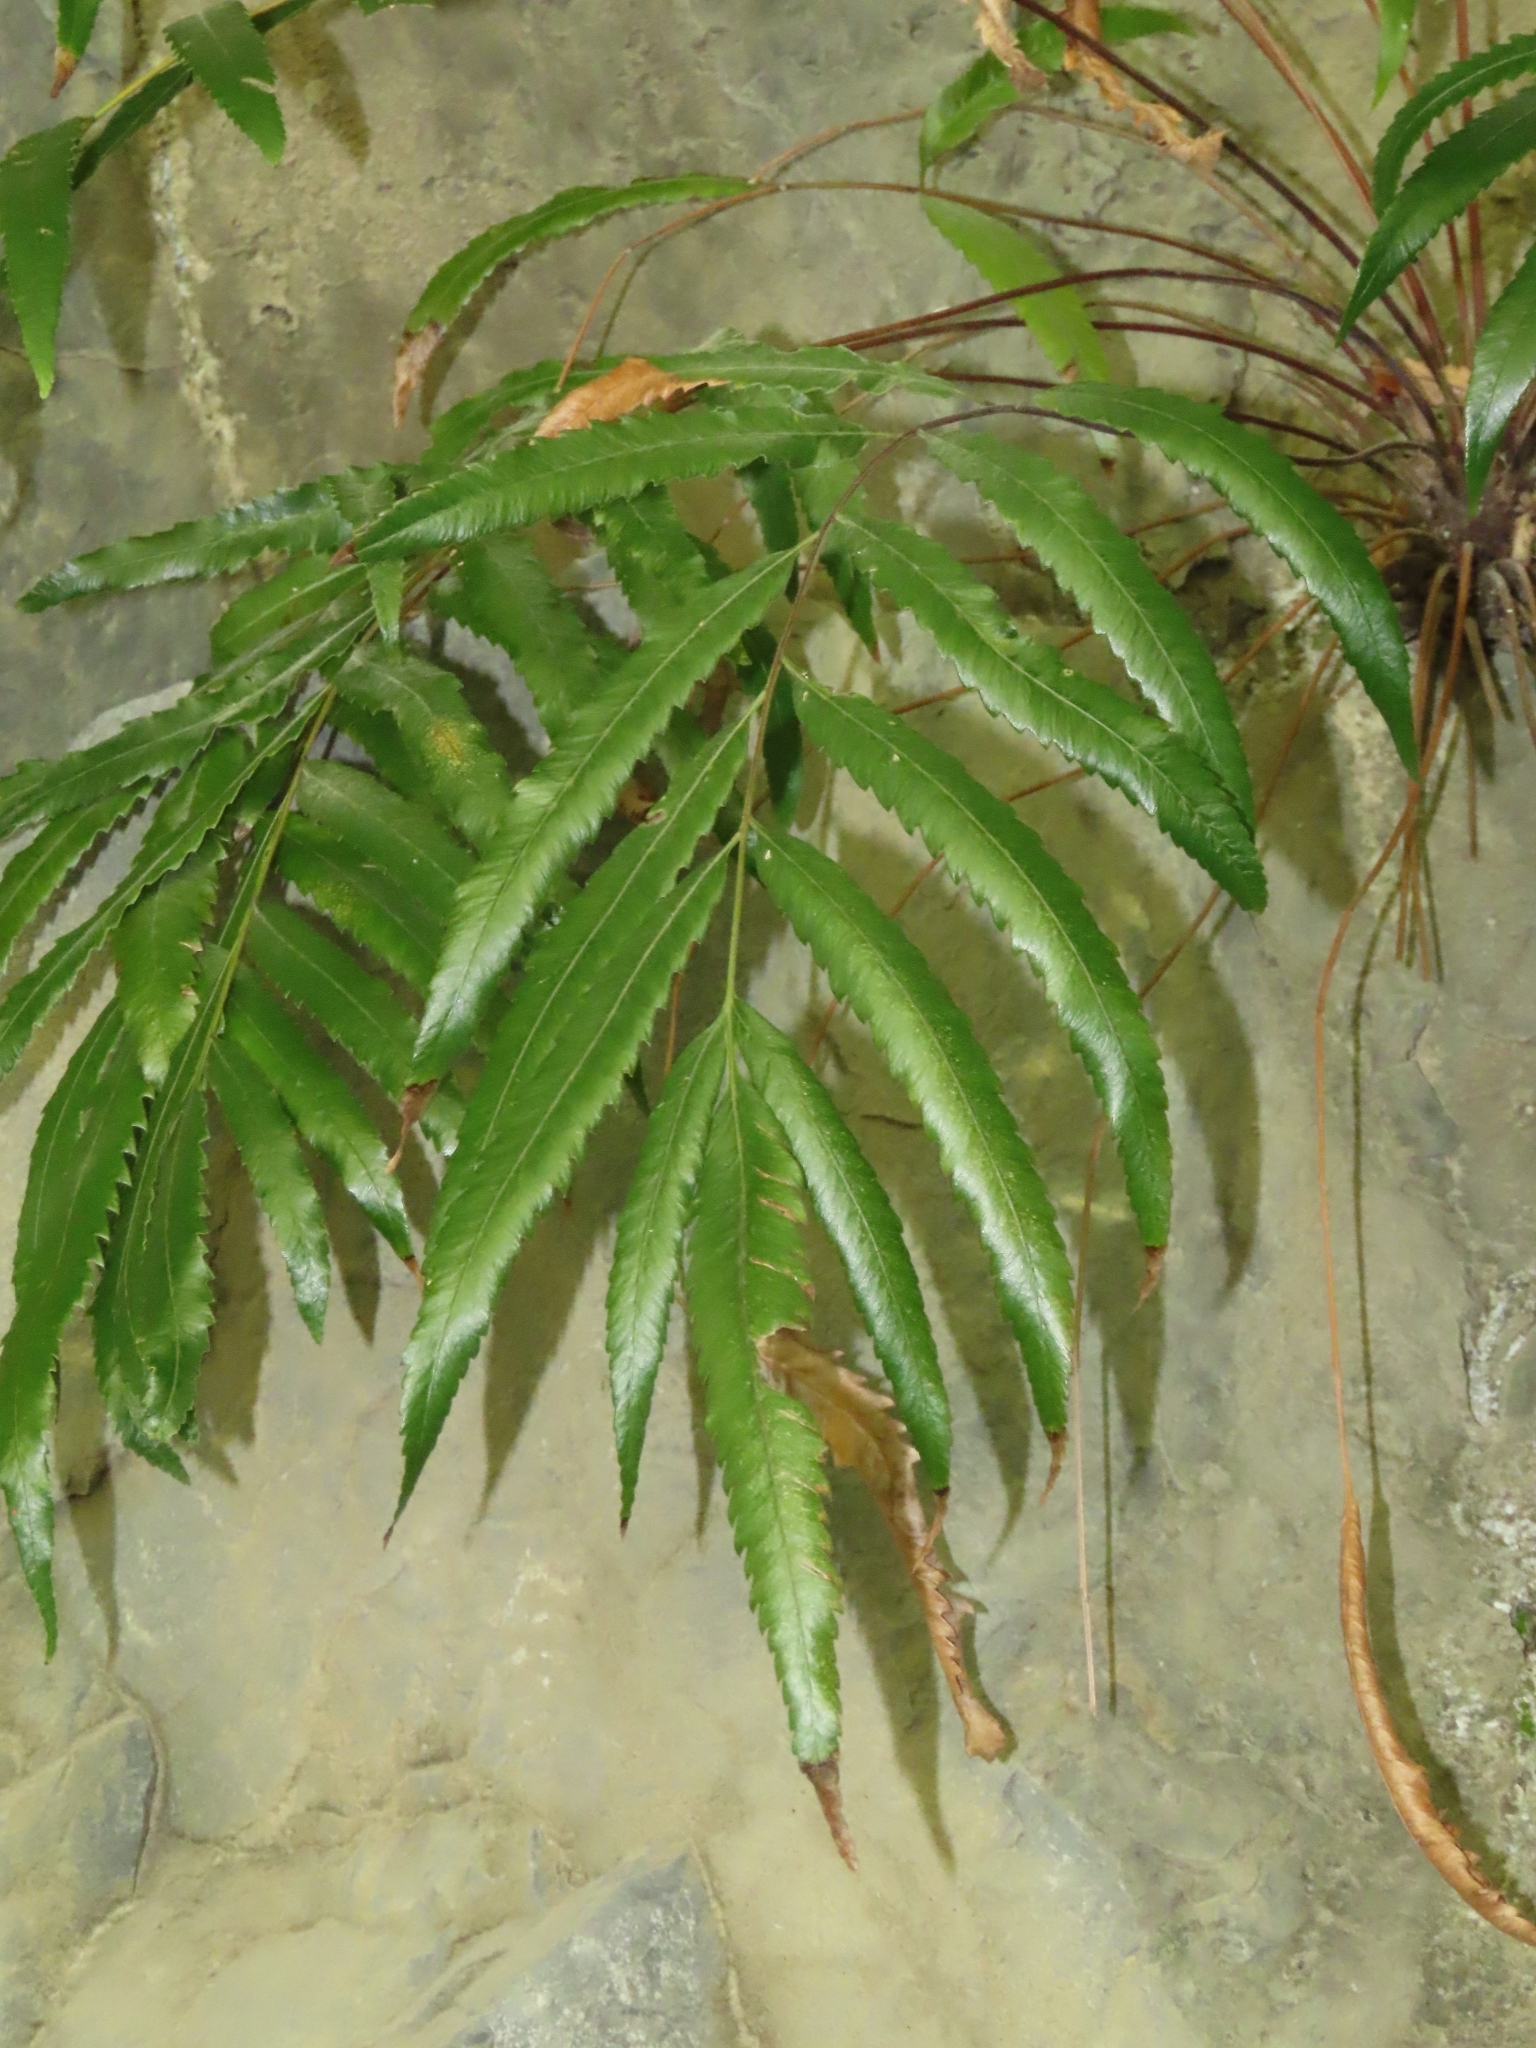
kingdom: Plantae
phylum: Tracheophyta
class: Polypodiopsida
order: Osmundales
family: Osmundaceae
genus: Plenasium
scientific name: Plenasium banksiifolium
